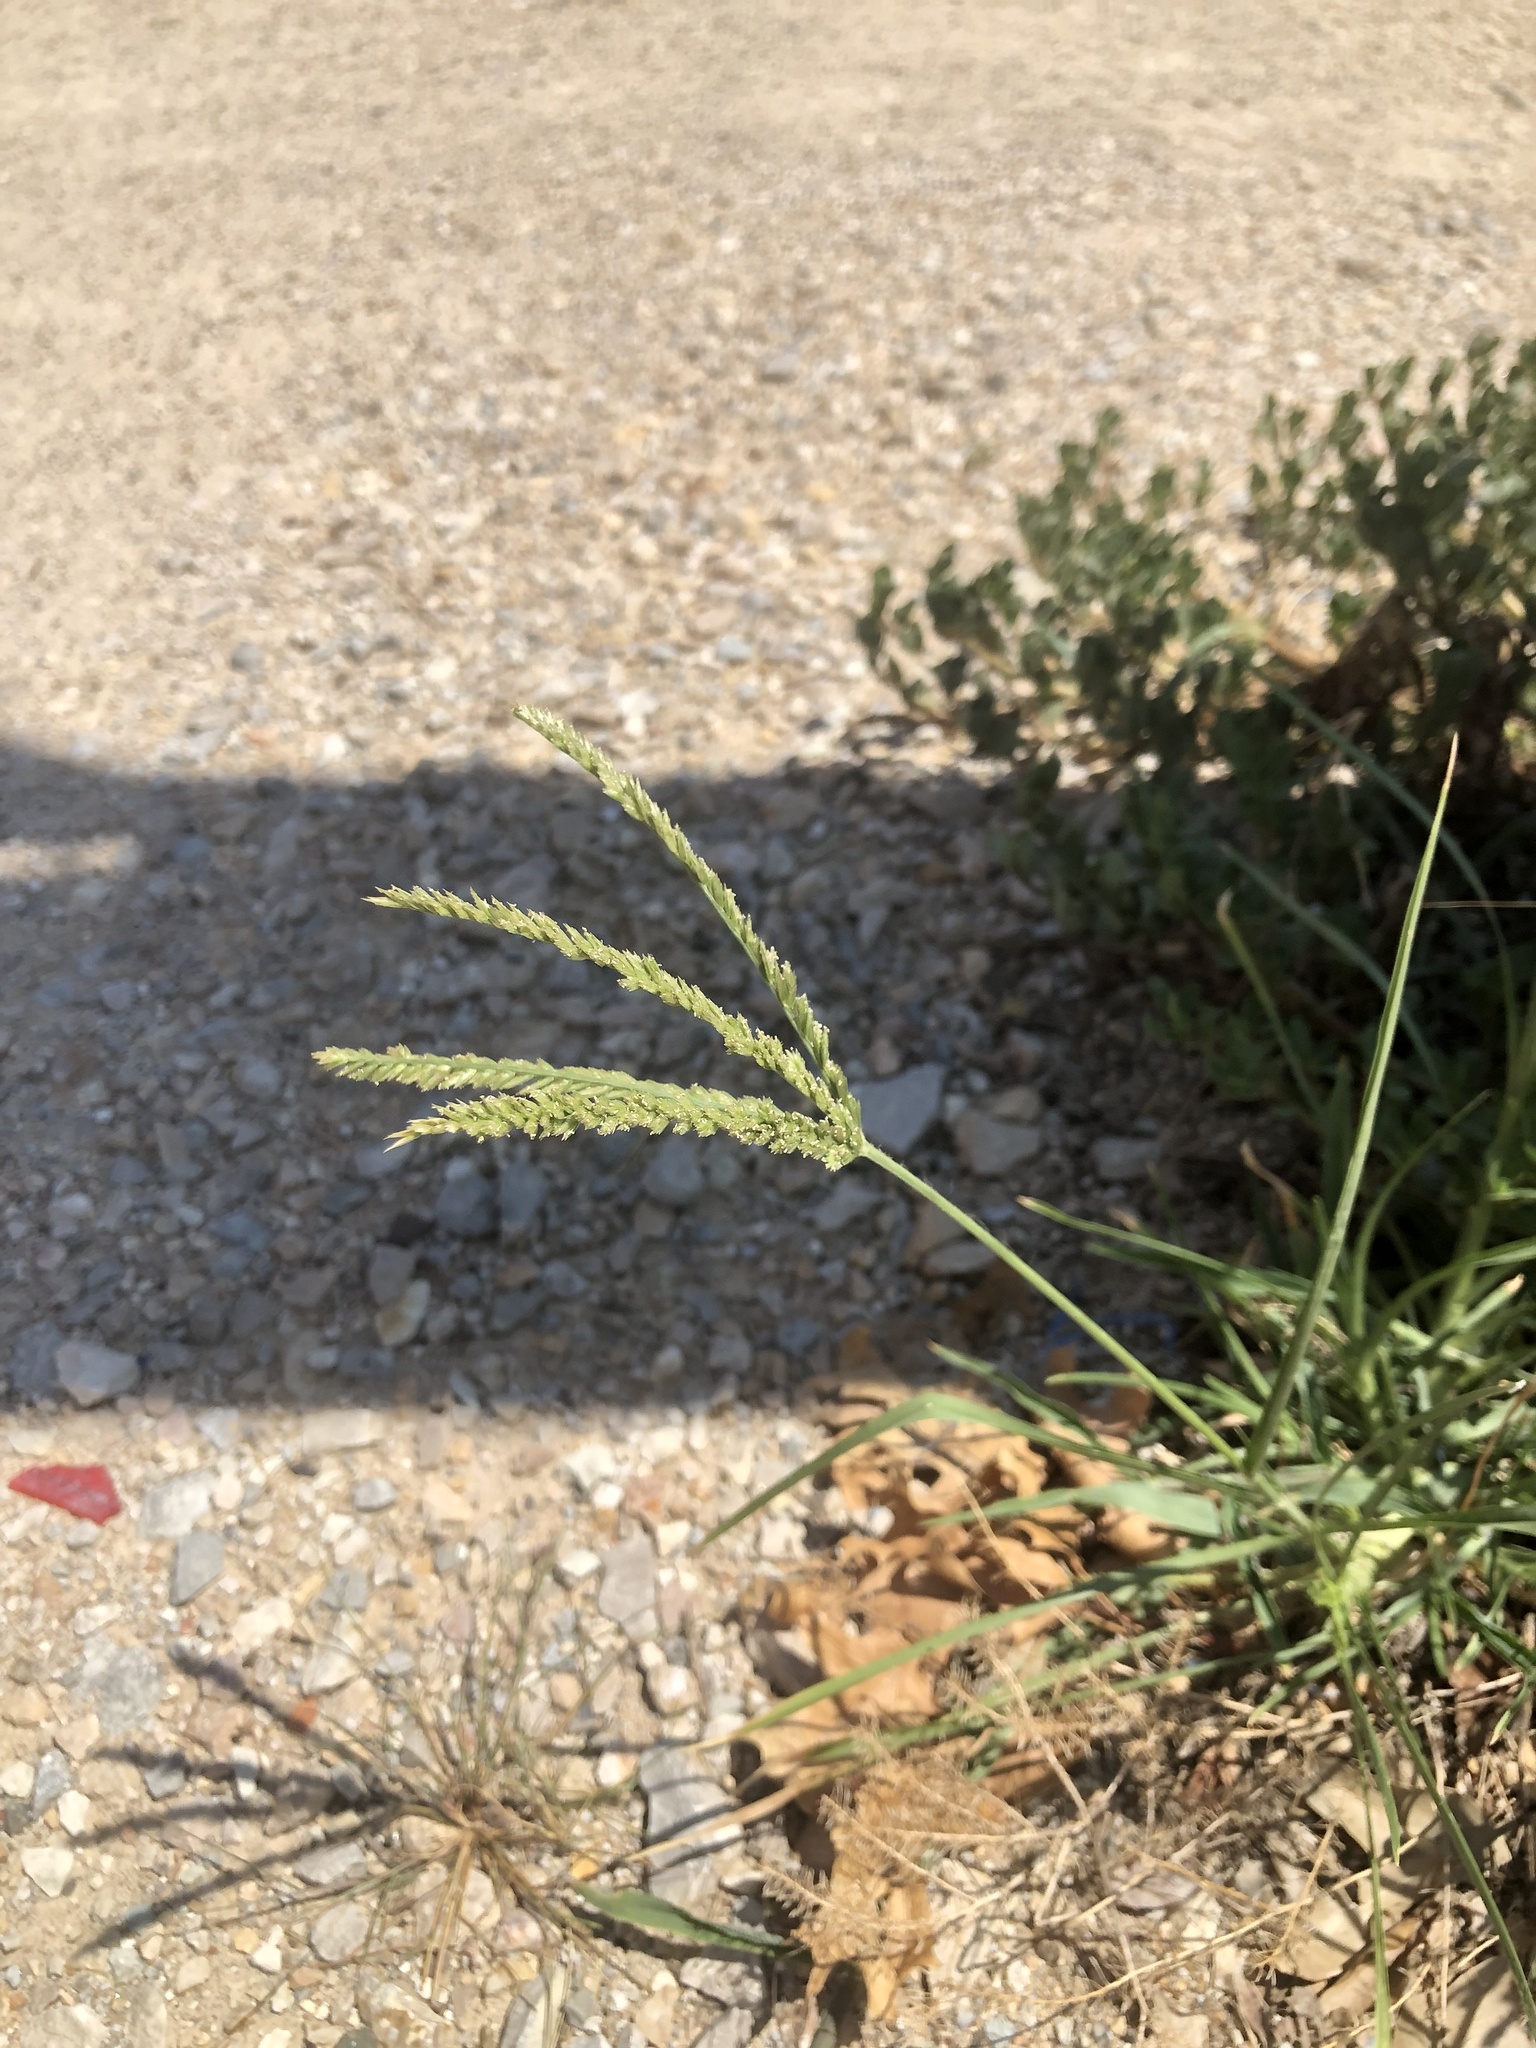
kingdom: Plantae
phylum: Tracheophyta
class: Liliopsida
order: Poales
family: Poaceae
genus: Eleusine
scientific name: Eleusine indica
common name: Yard-grass
